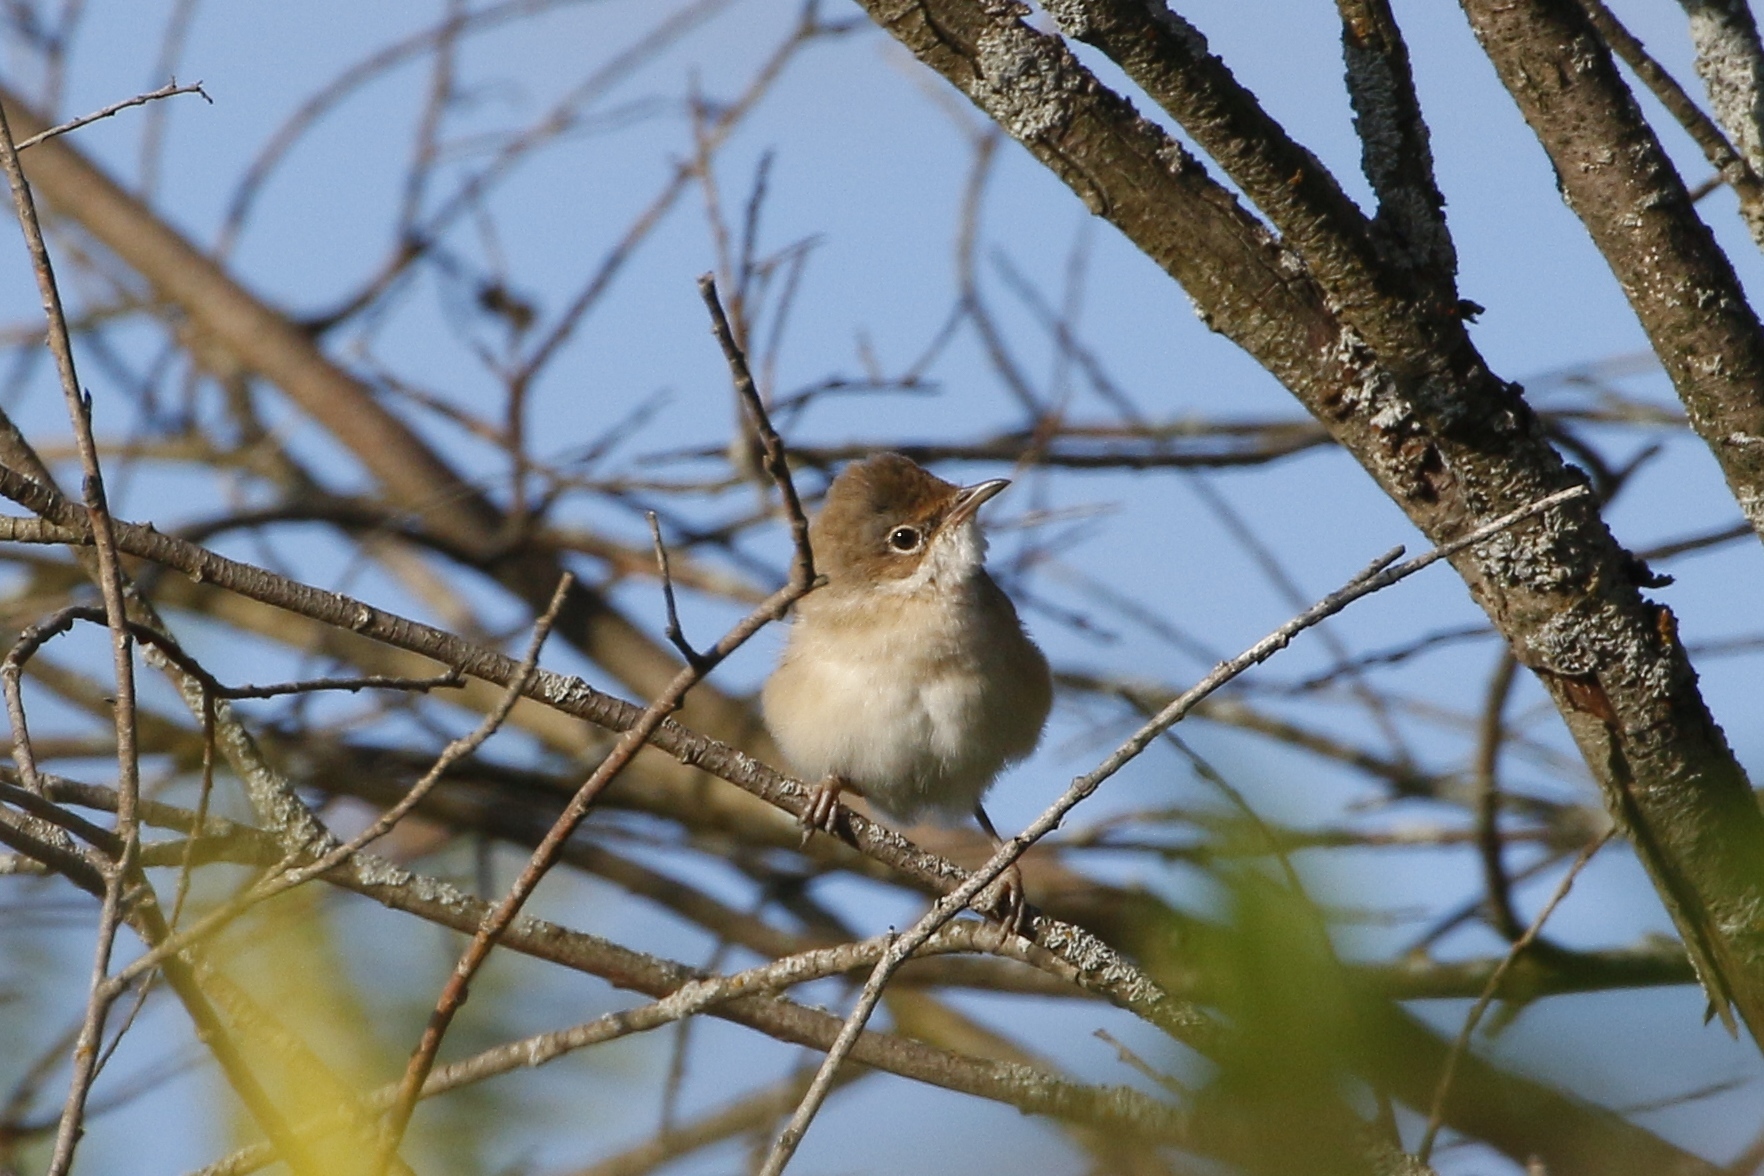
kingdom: Animalia
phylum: Chordata
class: Aves
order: Passeriformes
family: Sylviidae
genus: Sylvia
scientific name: Sylvia communis
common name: Common whitethroat
